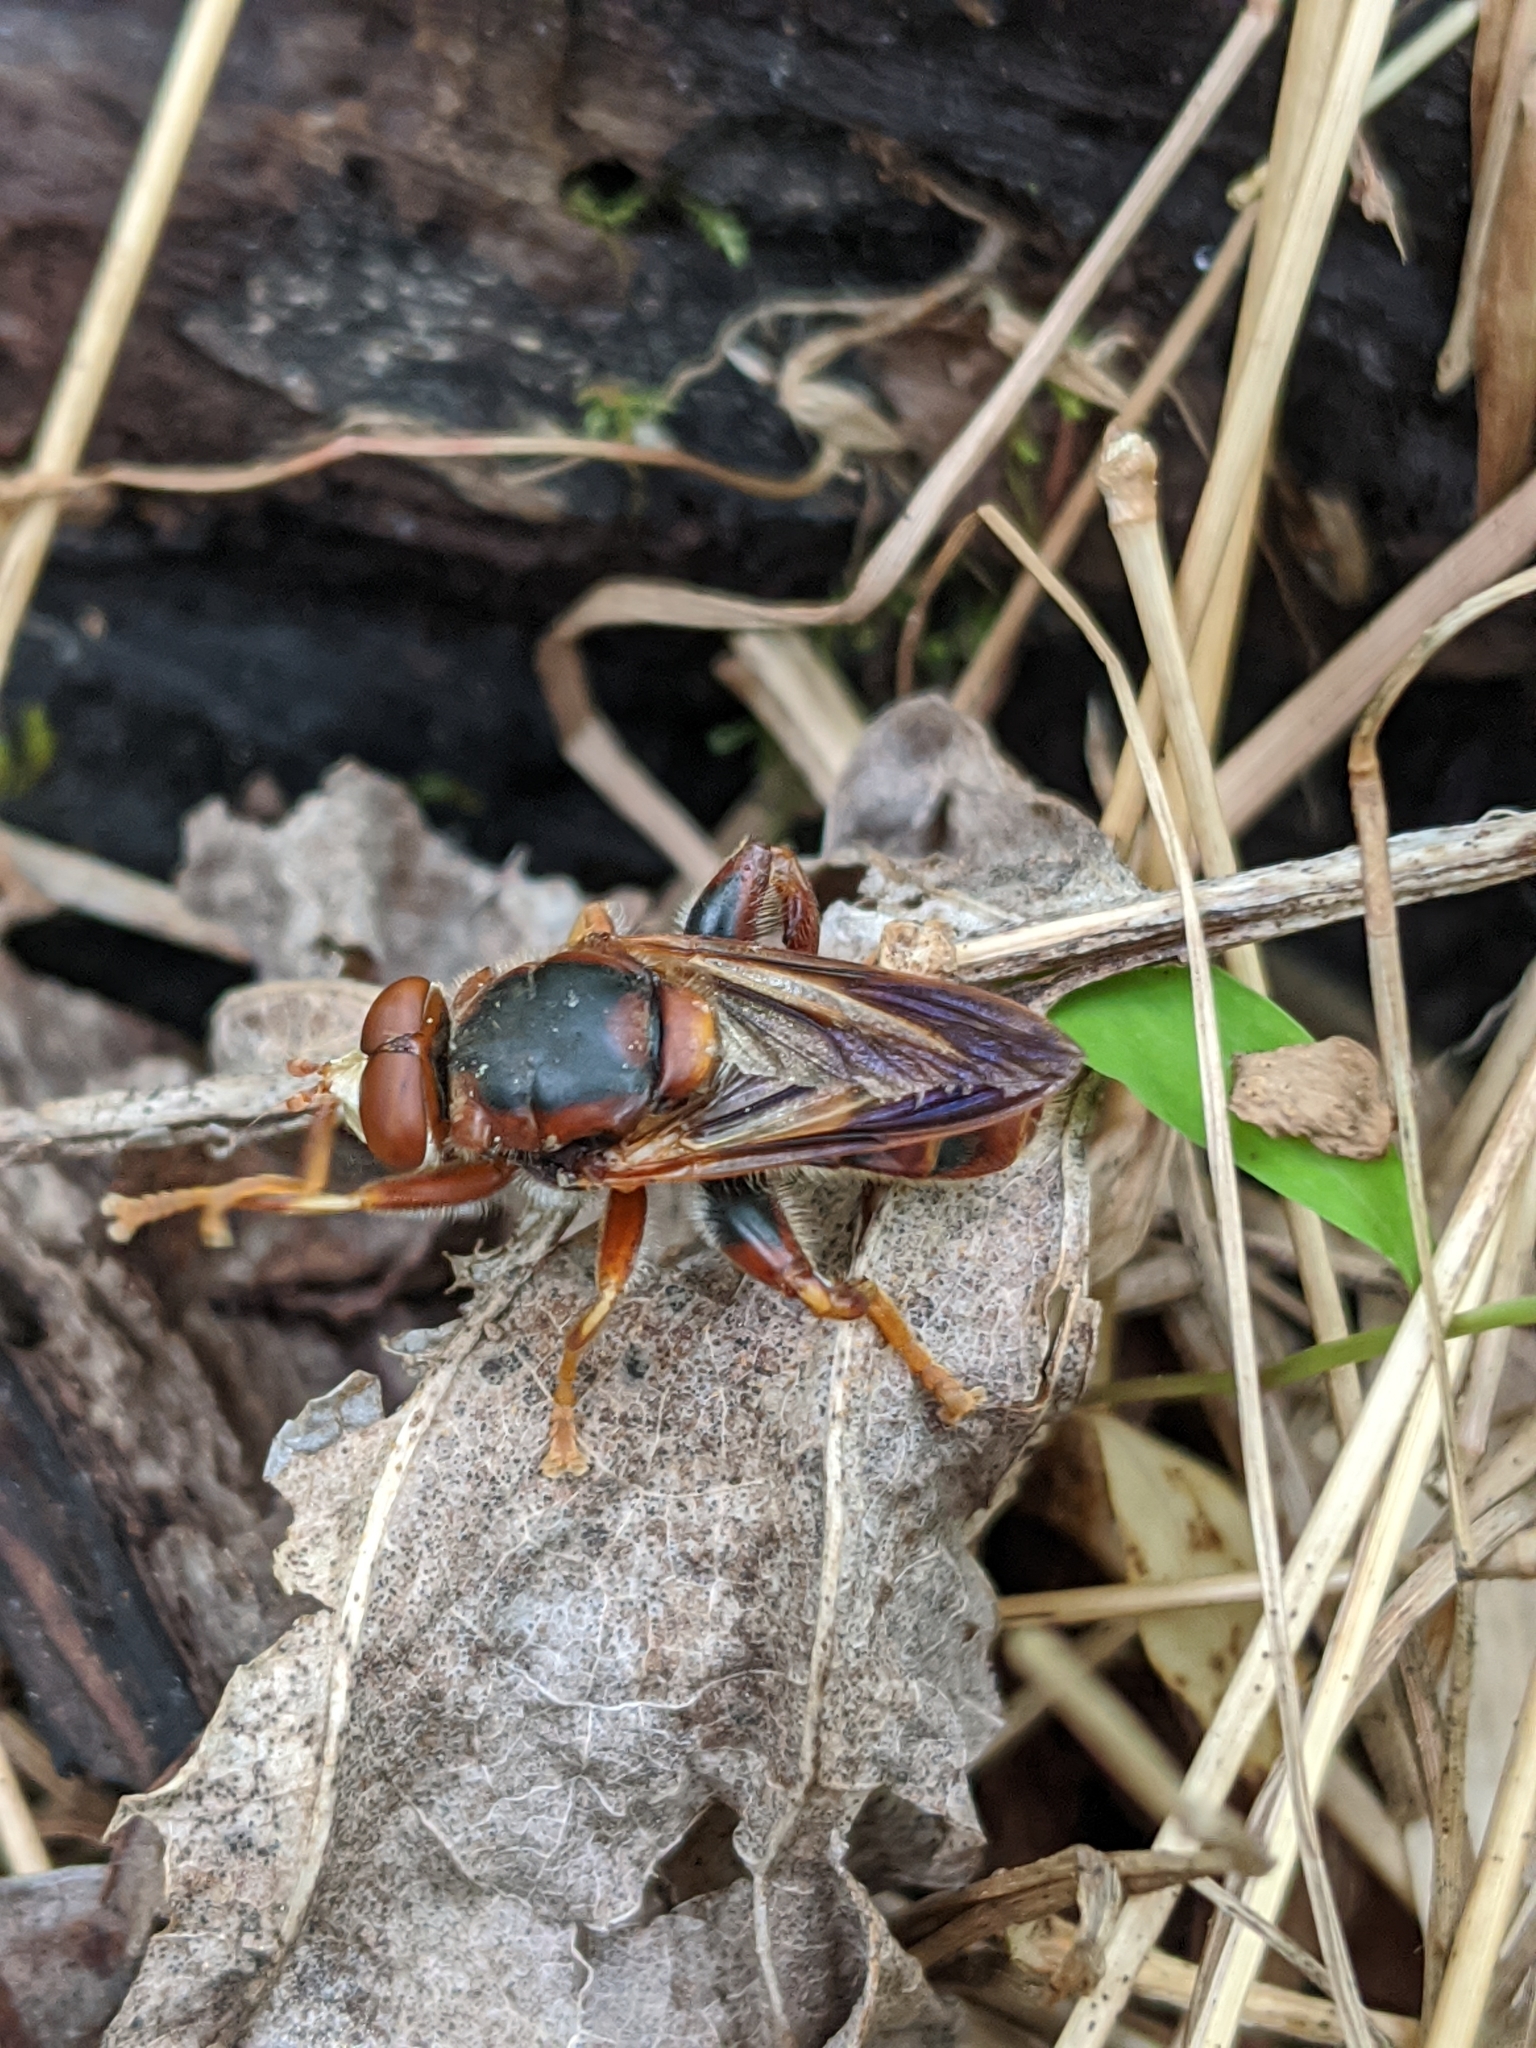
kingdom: Animalia
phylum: Arthropoda
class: Insecta
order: Diptera
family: Syrphidae
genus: Teuchocnemis
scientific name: Teuchocnemis bacuntius
